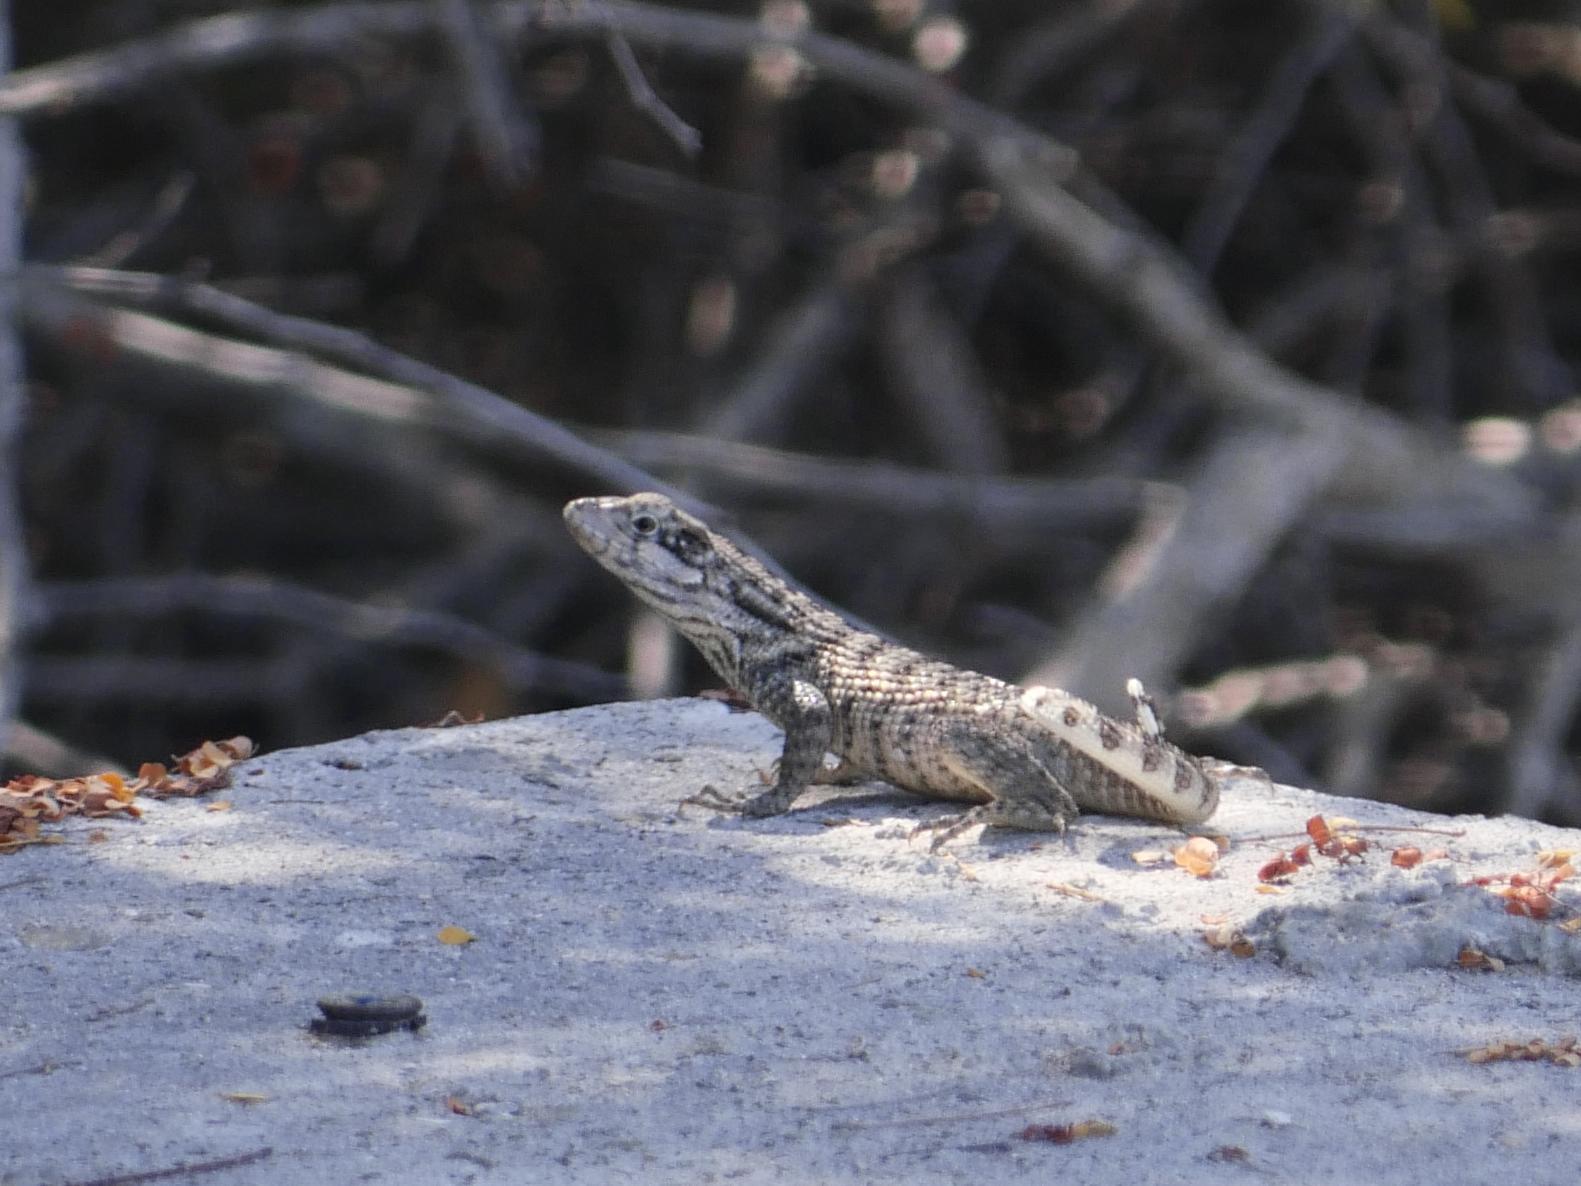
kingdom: Animalia
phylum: Chordata
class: Squamata
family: Leiocephalidae
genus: Leiocephalus
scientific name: Leiocephalus psammodromus
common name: Bastion cay curlytail lizard
